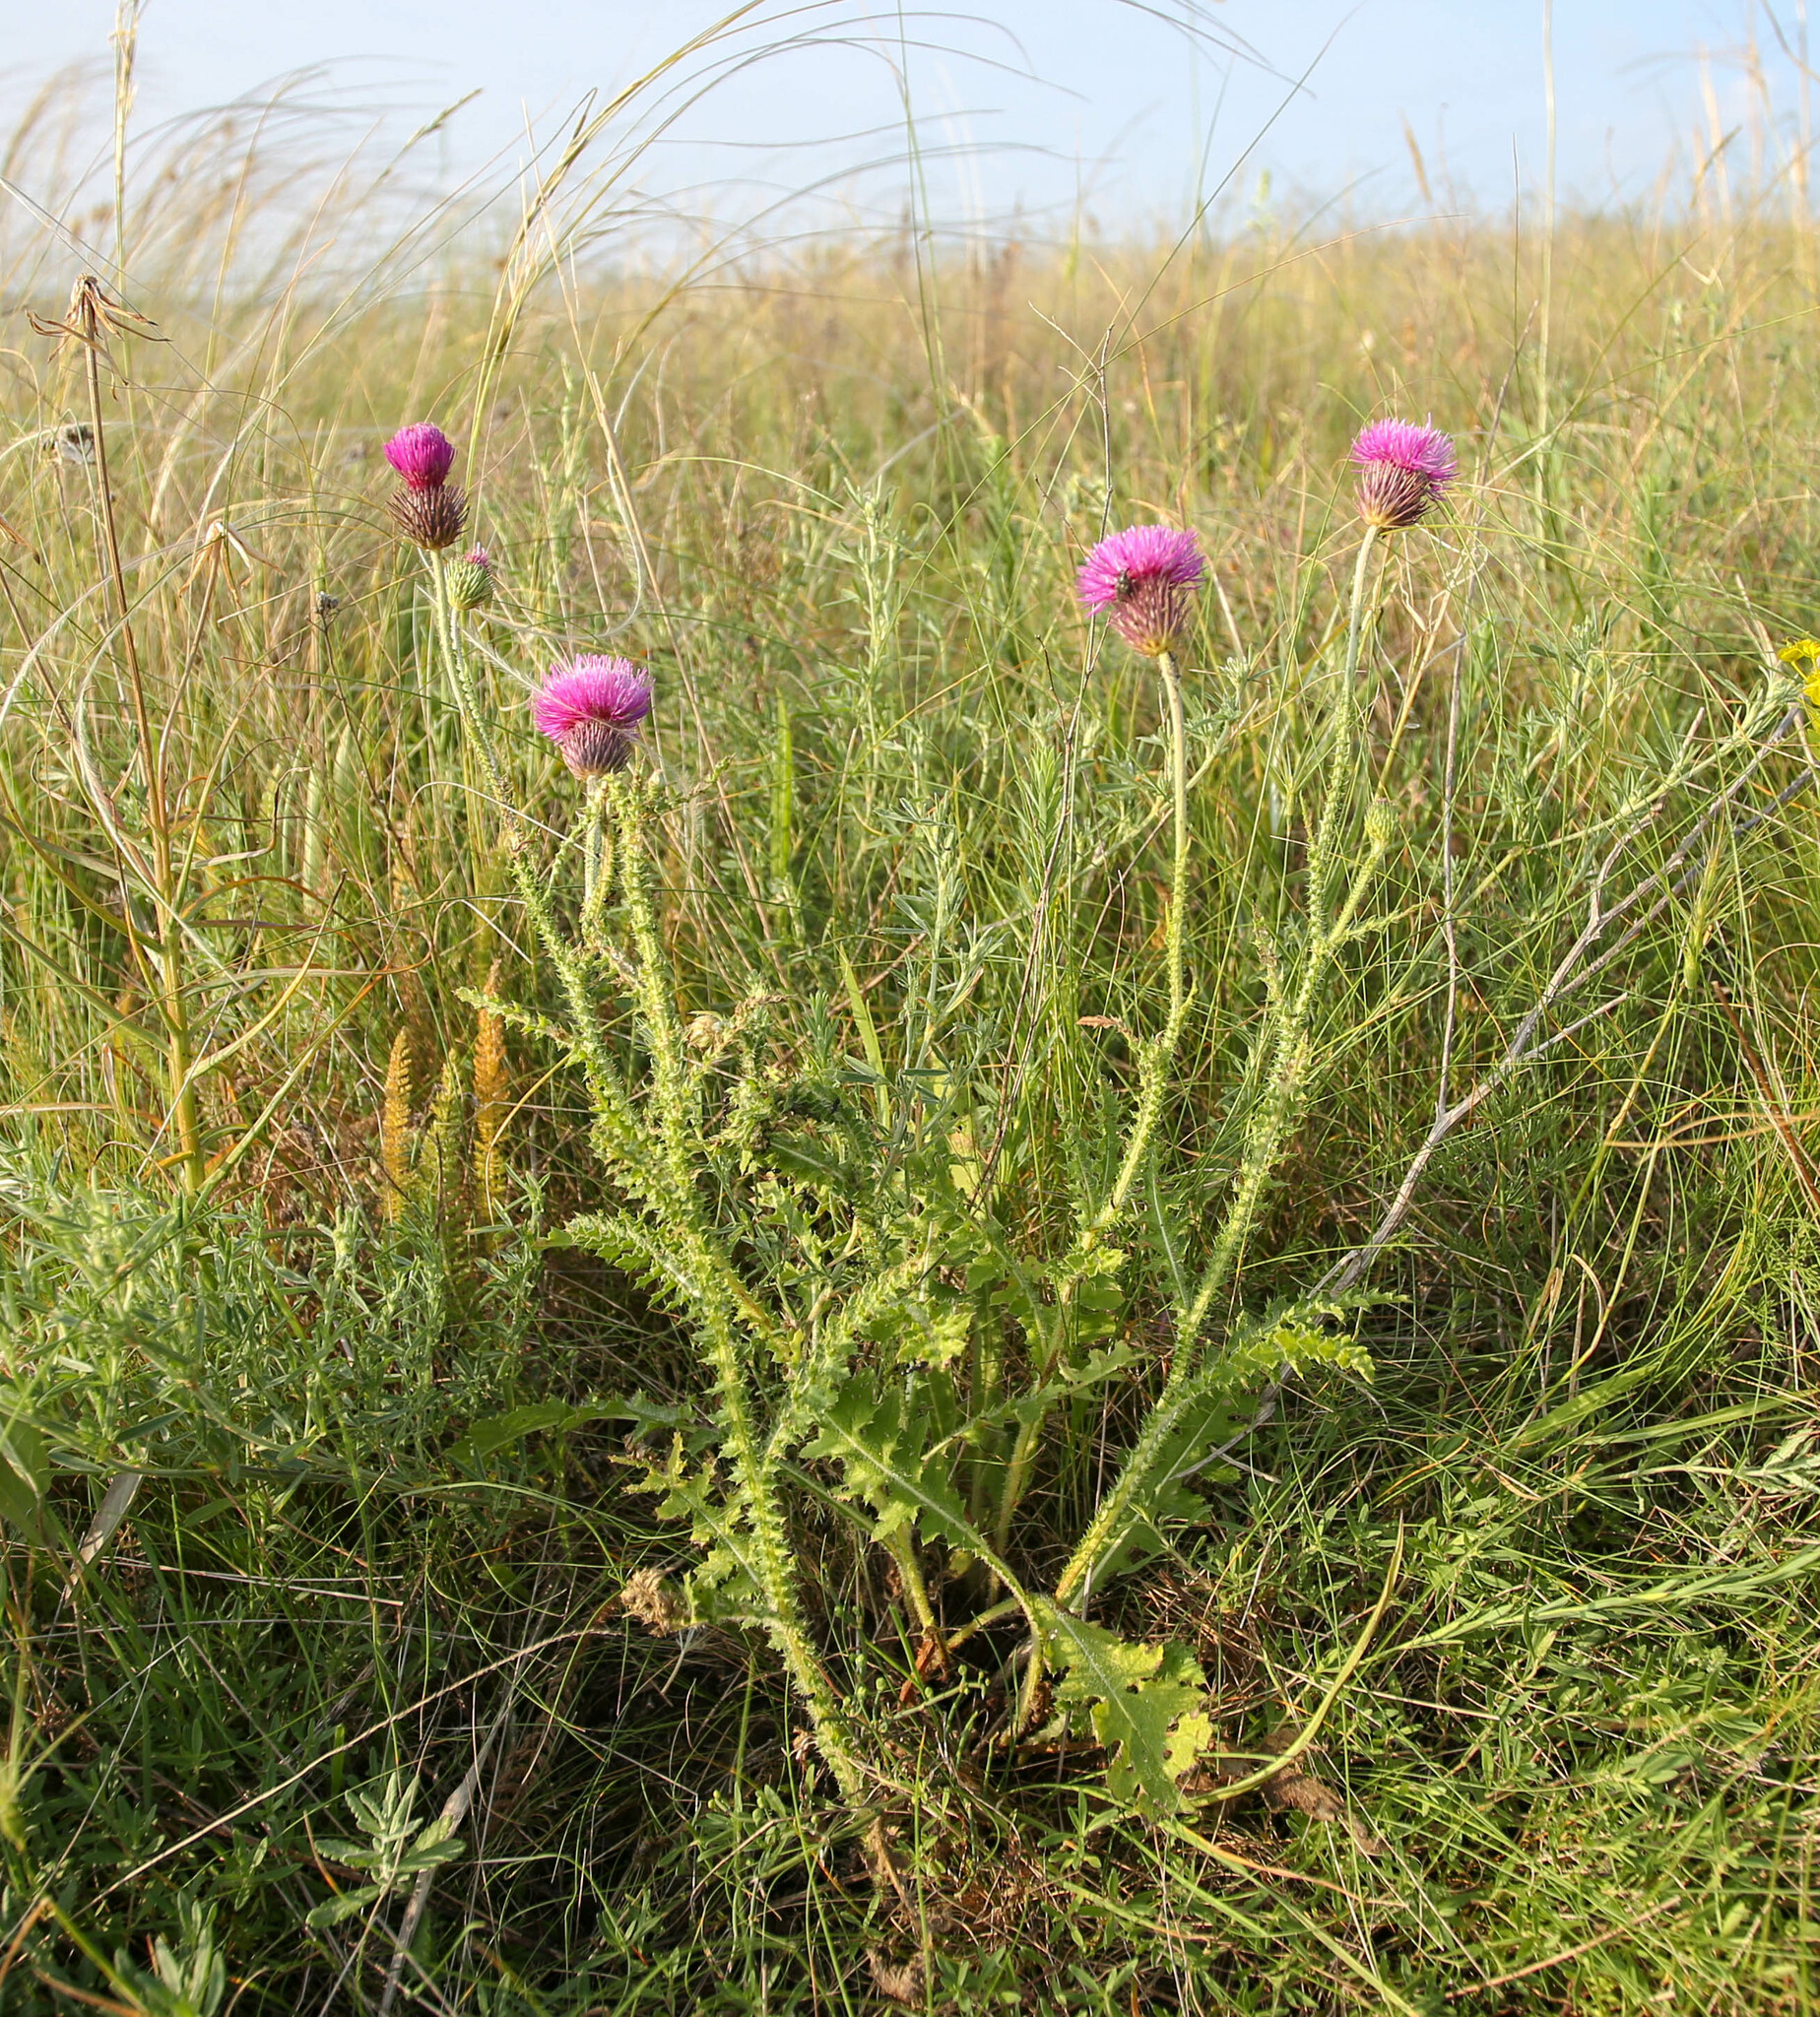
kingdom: Plantae
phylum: Tracheophyta
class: Magnoliopsida
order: Asterales
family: Asteraceae
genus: Carduus
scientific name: Carduus hamulosus
